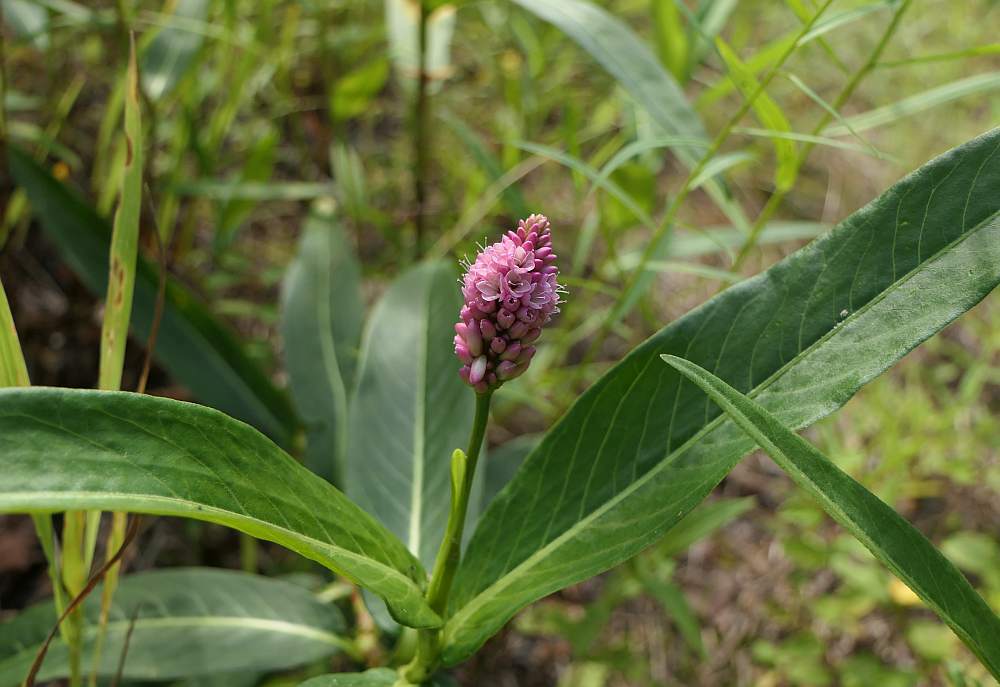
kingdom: Plantae
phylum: Tracheophyta
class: Magnoliopsida
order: Caryophyllales
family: Polygonaceae
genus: Persicaria
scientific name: Persicaria amphibia
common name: Amphibious bistort
